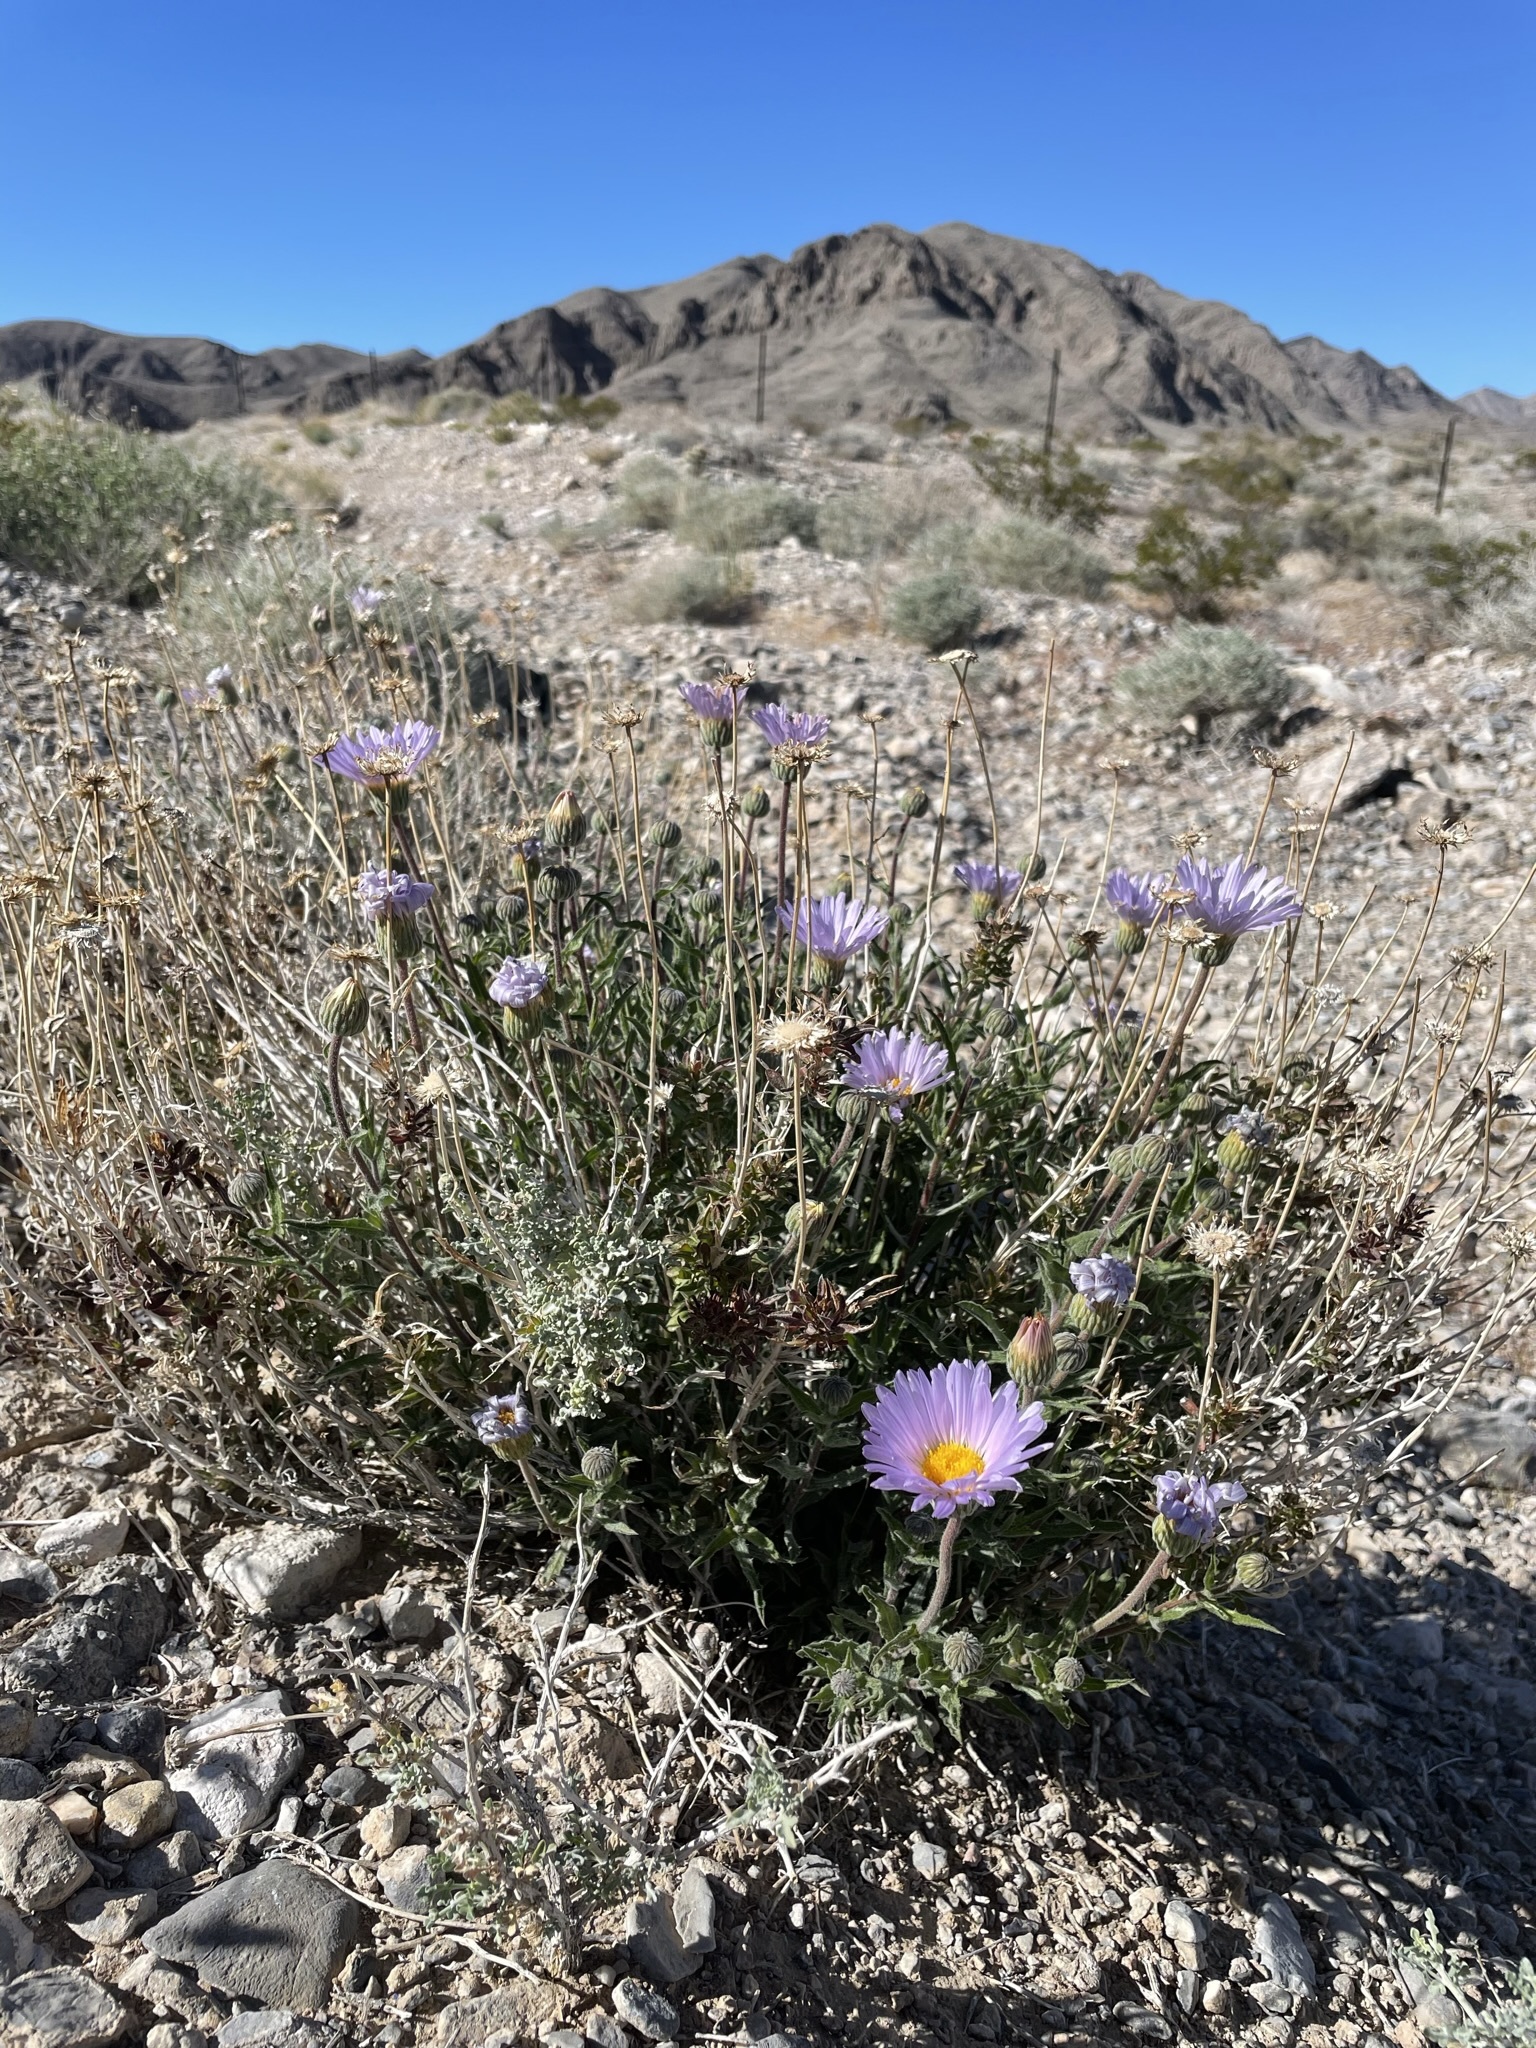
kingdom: Plantae
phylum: Tracheophyta
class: Magnoliopsida
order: Asterales
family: Asteraceae
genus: Xylorhiza
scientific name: Xylorhiza tortifolia
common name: Hurt-leaf woody-aster
